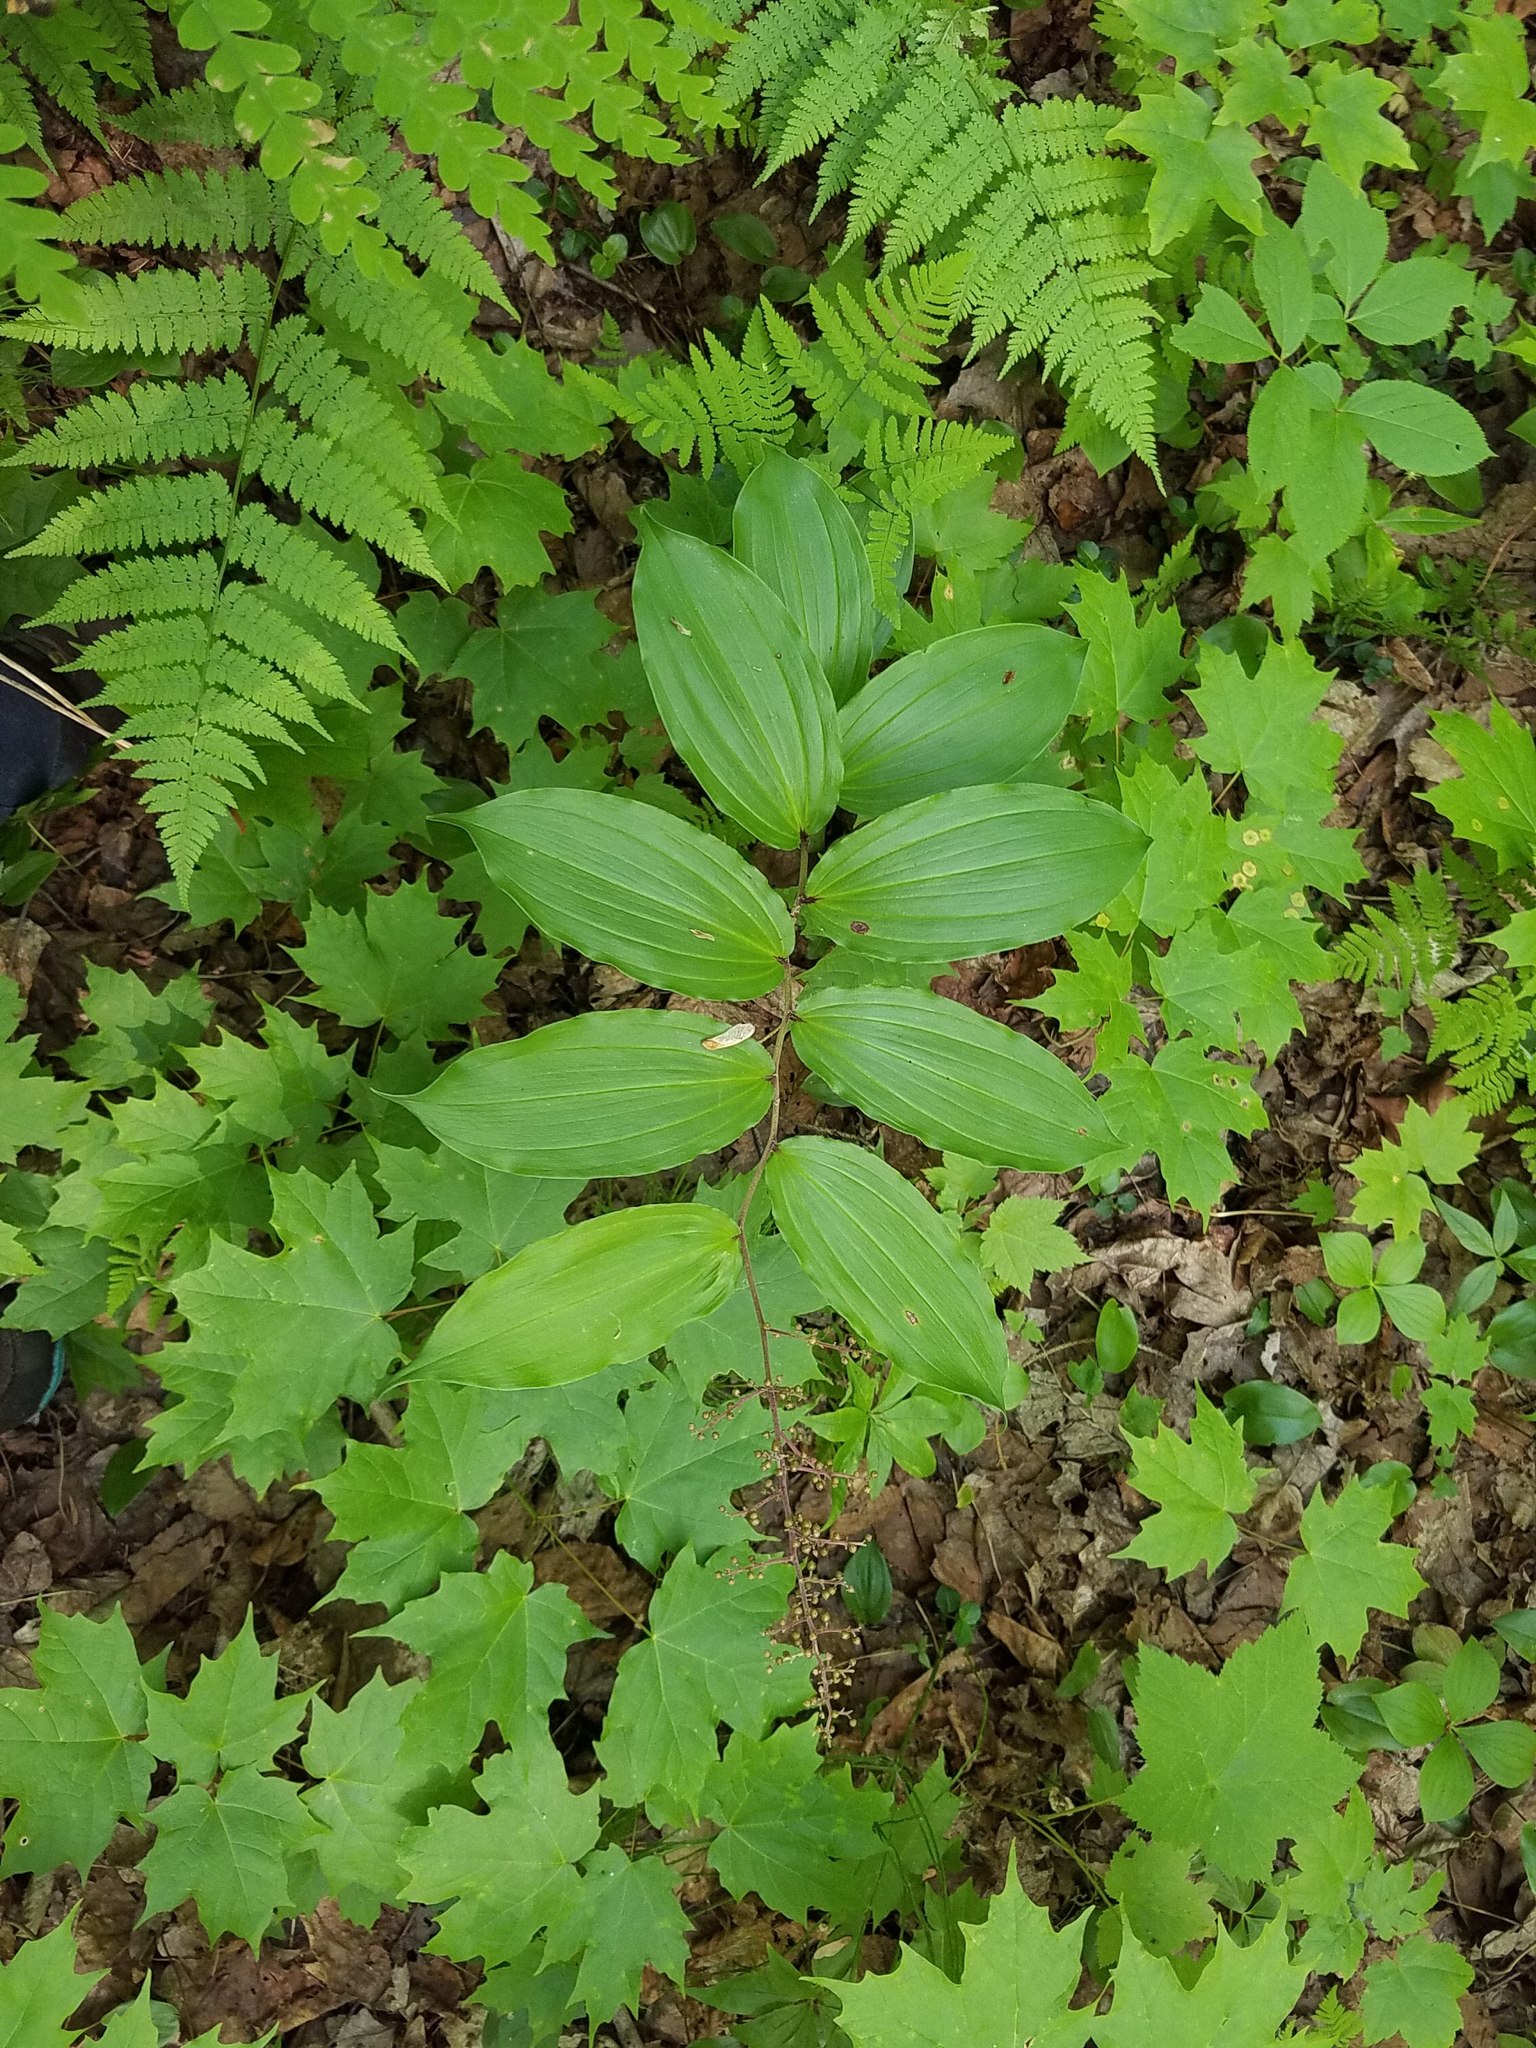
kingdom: Plantae
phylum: Tracheophyta
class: Liliopsida
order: Asparagales
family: Asparagaceae
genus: Maianthemum
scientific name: Maianthemum racemosum
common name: False spikenard
